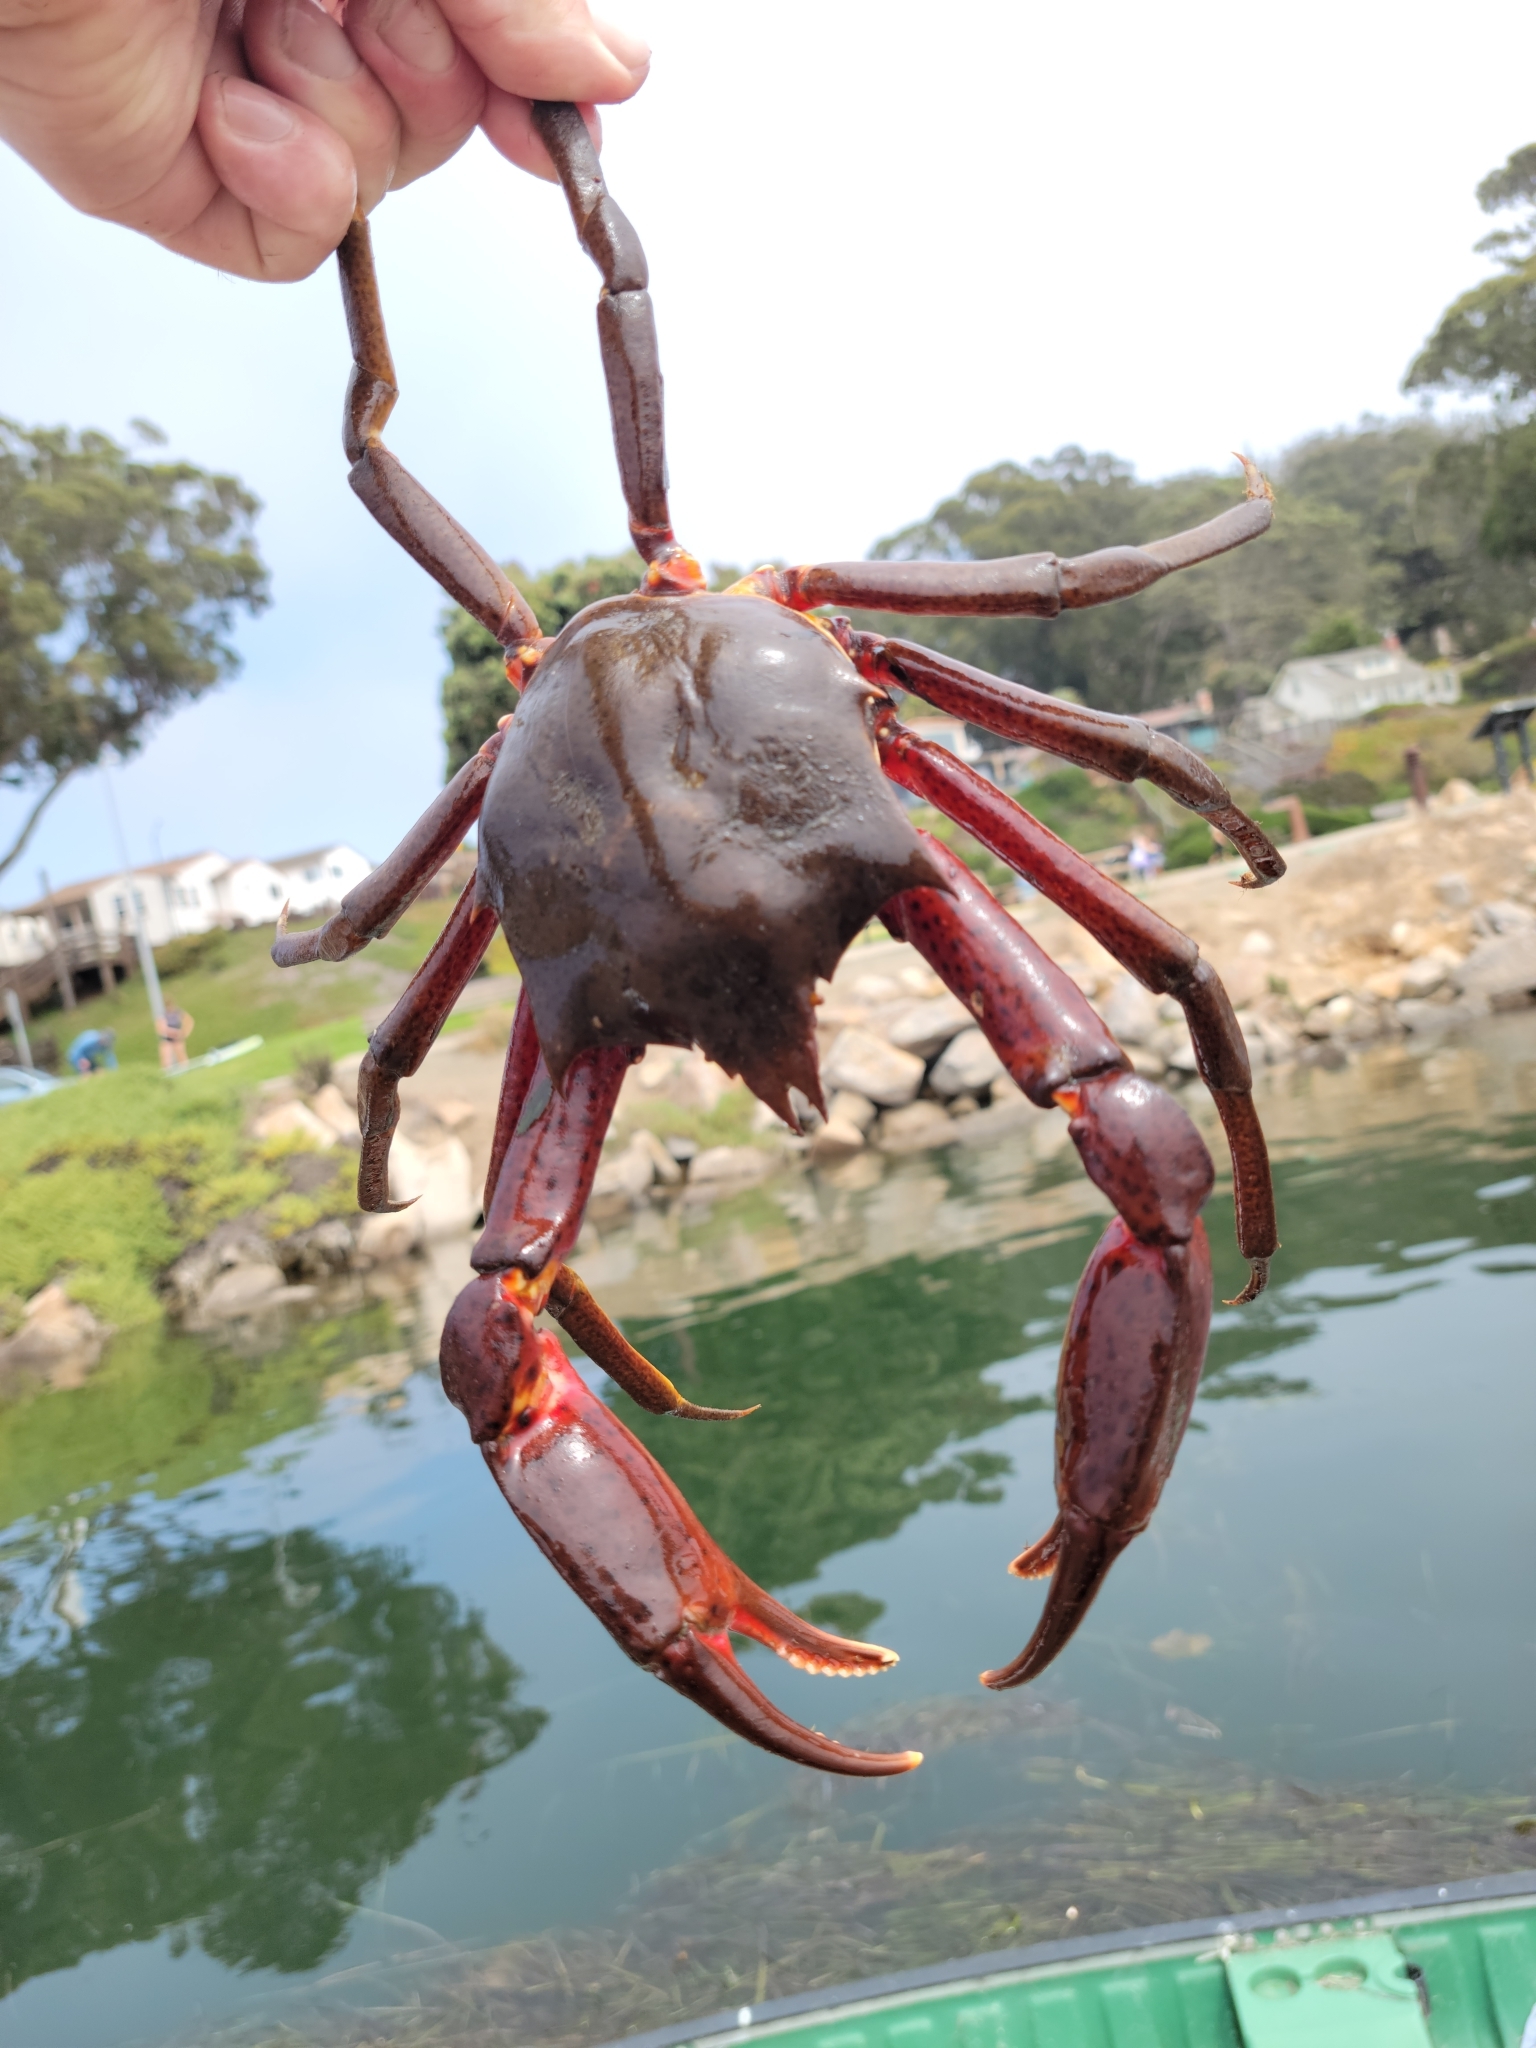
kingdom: Animalia
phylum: Arthropoda
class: Malacostraca
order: Decapoda
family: Epialtidae
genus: Pugettia
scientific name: Pugettia producta
